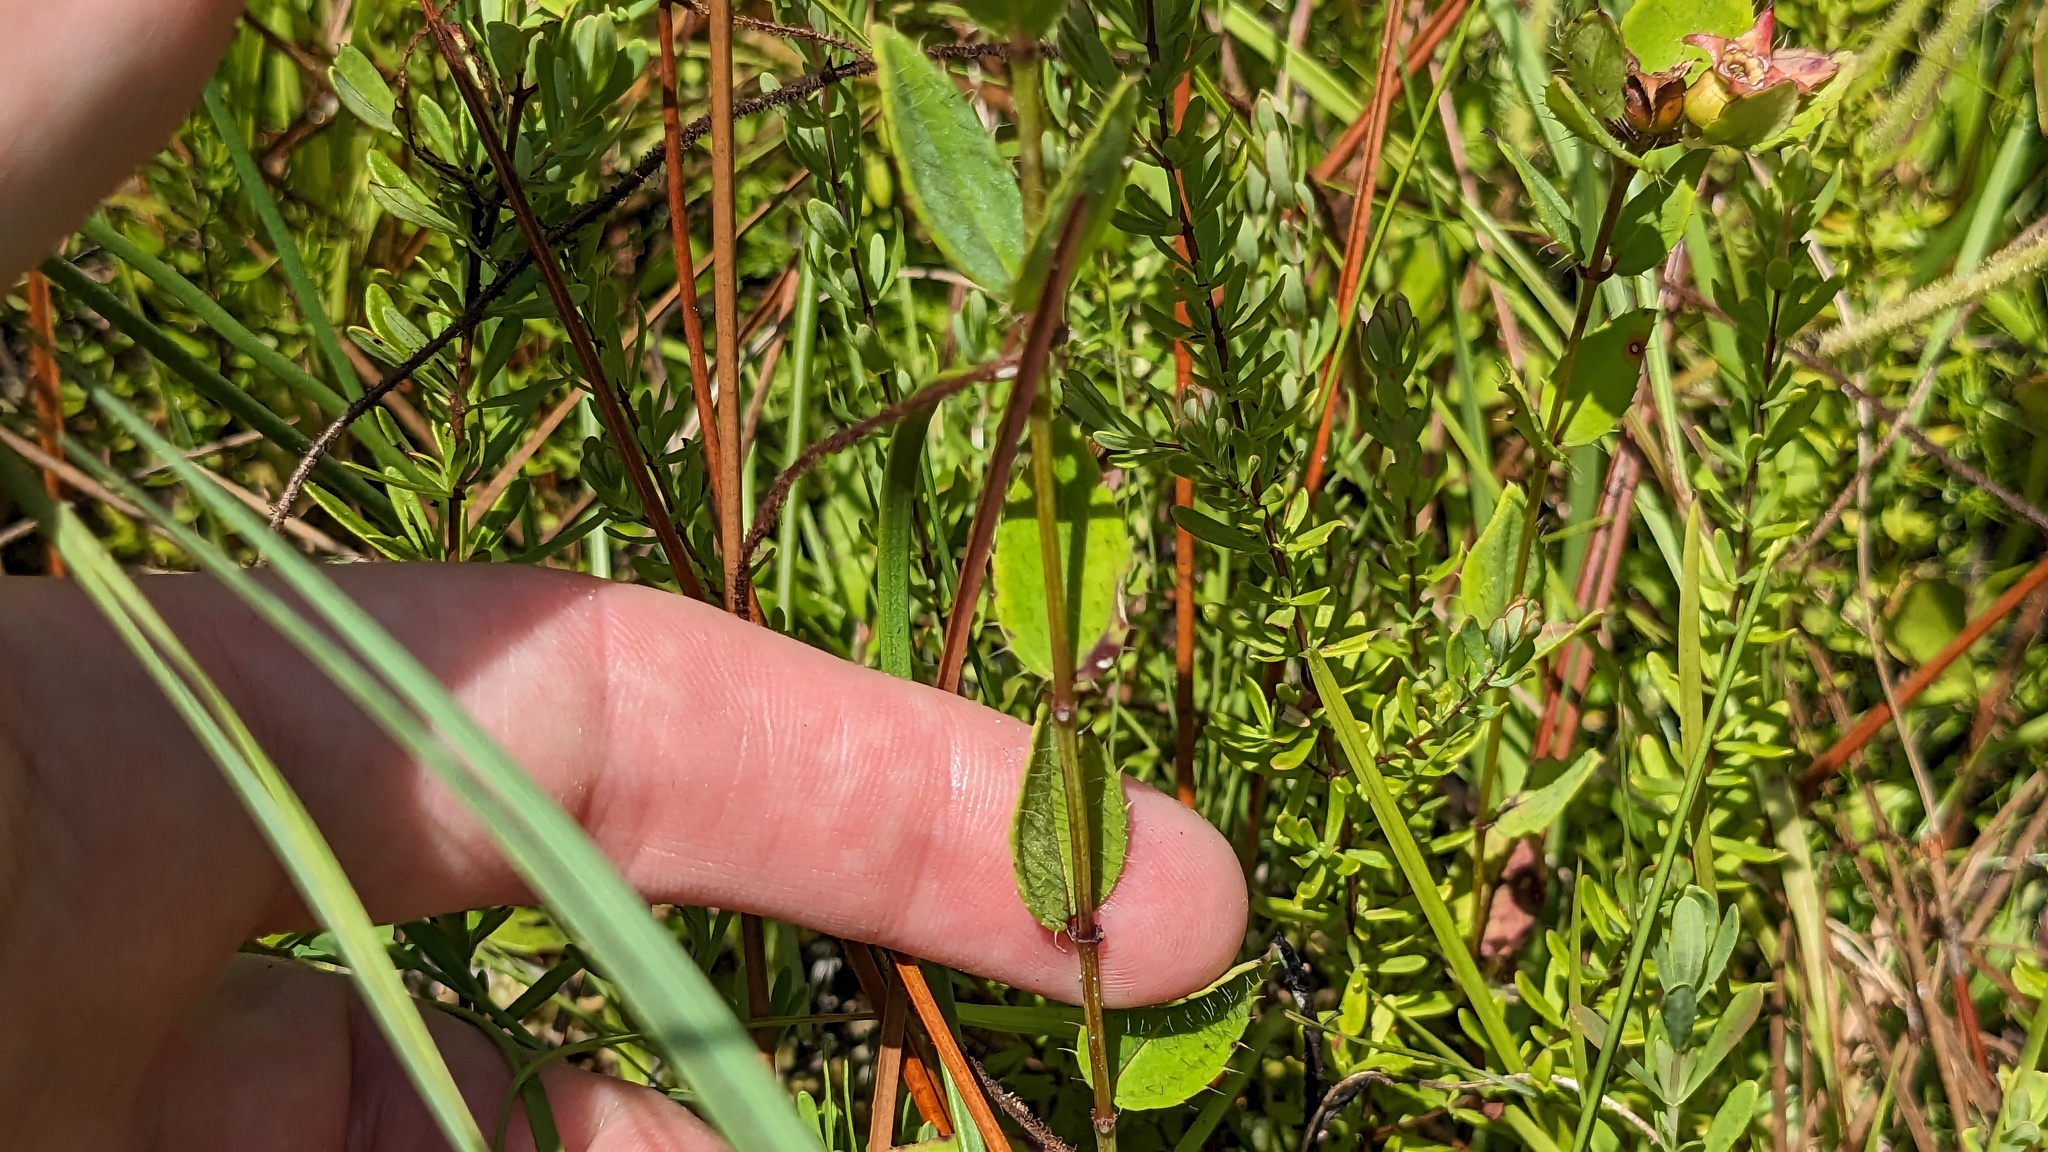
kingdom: Plantae
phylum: Tracheophyta
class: Magnoliopsida
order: Myrtales
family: Melastomataceae
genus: Rhexia
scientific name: Rhexia petiolata
